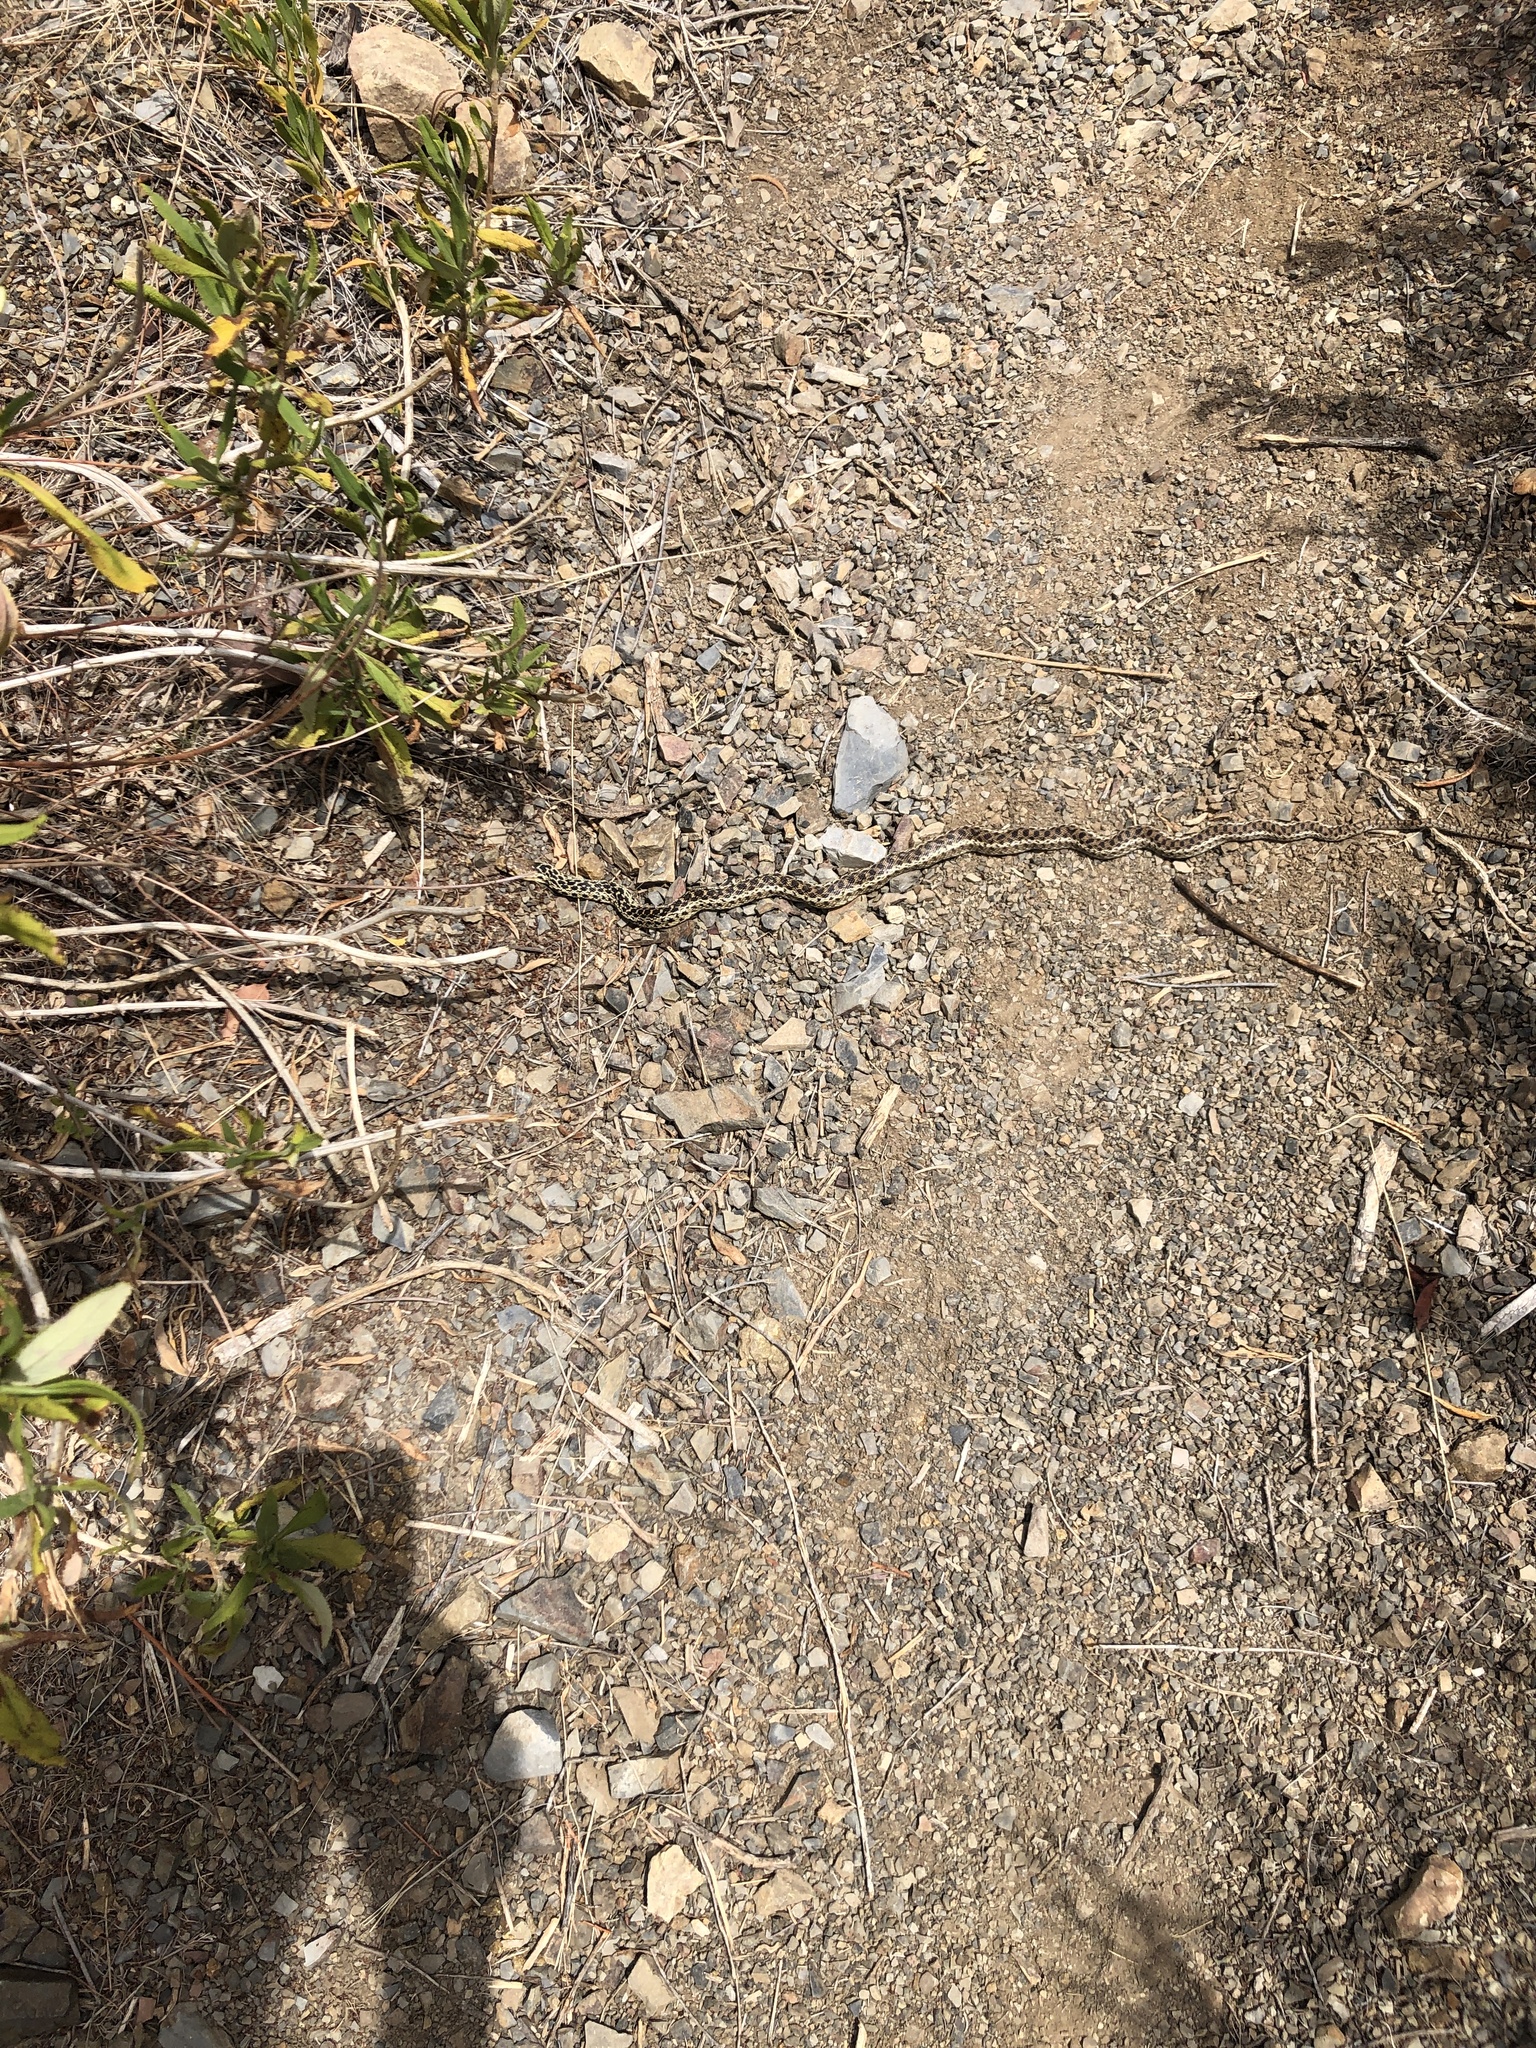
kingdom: Animalia
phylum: Chordata
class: Squamata
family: Colubridae
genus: Pituophis
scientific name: Pituophis catenifer
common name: Gopher snake
